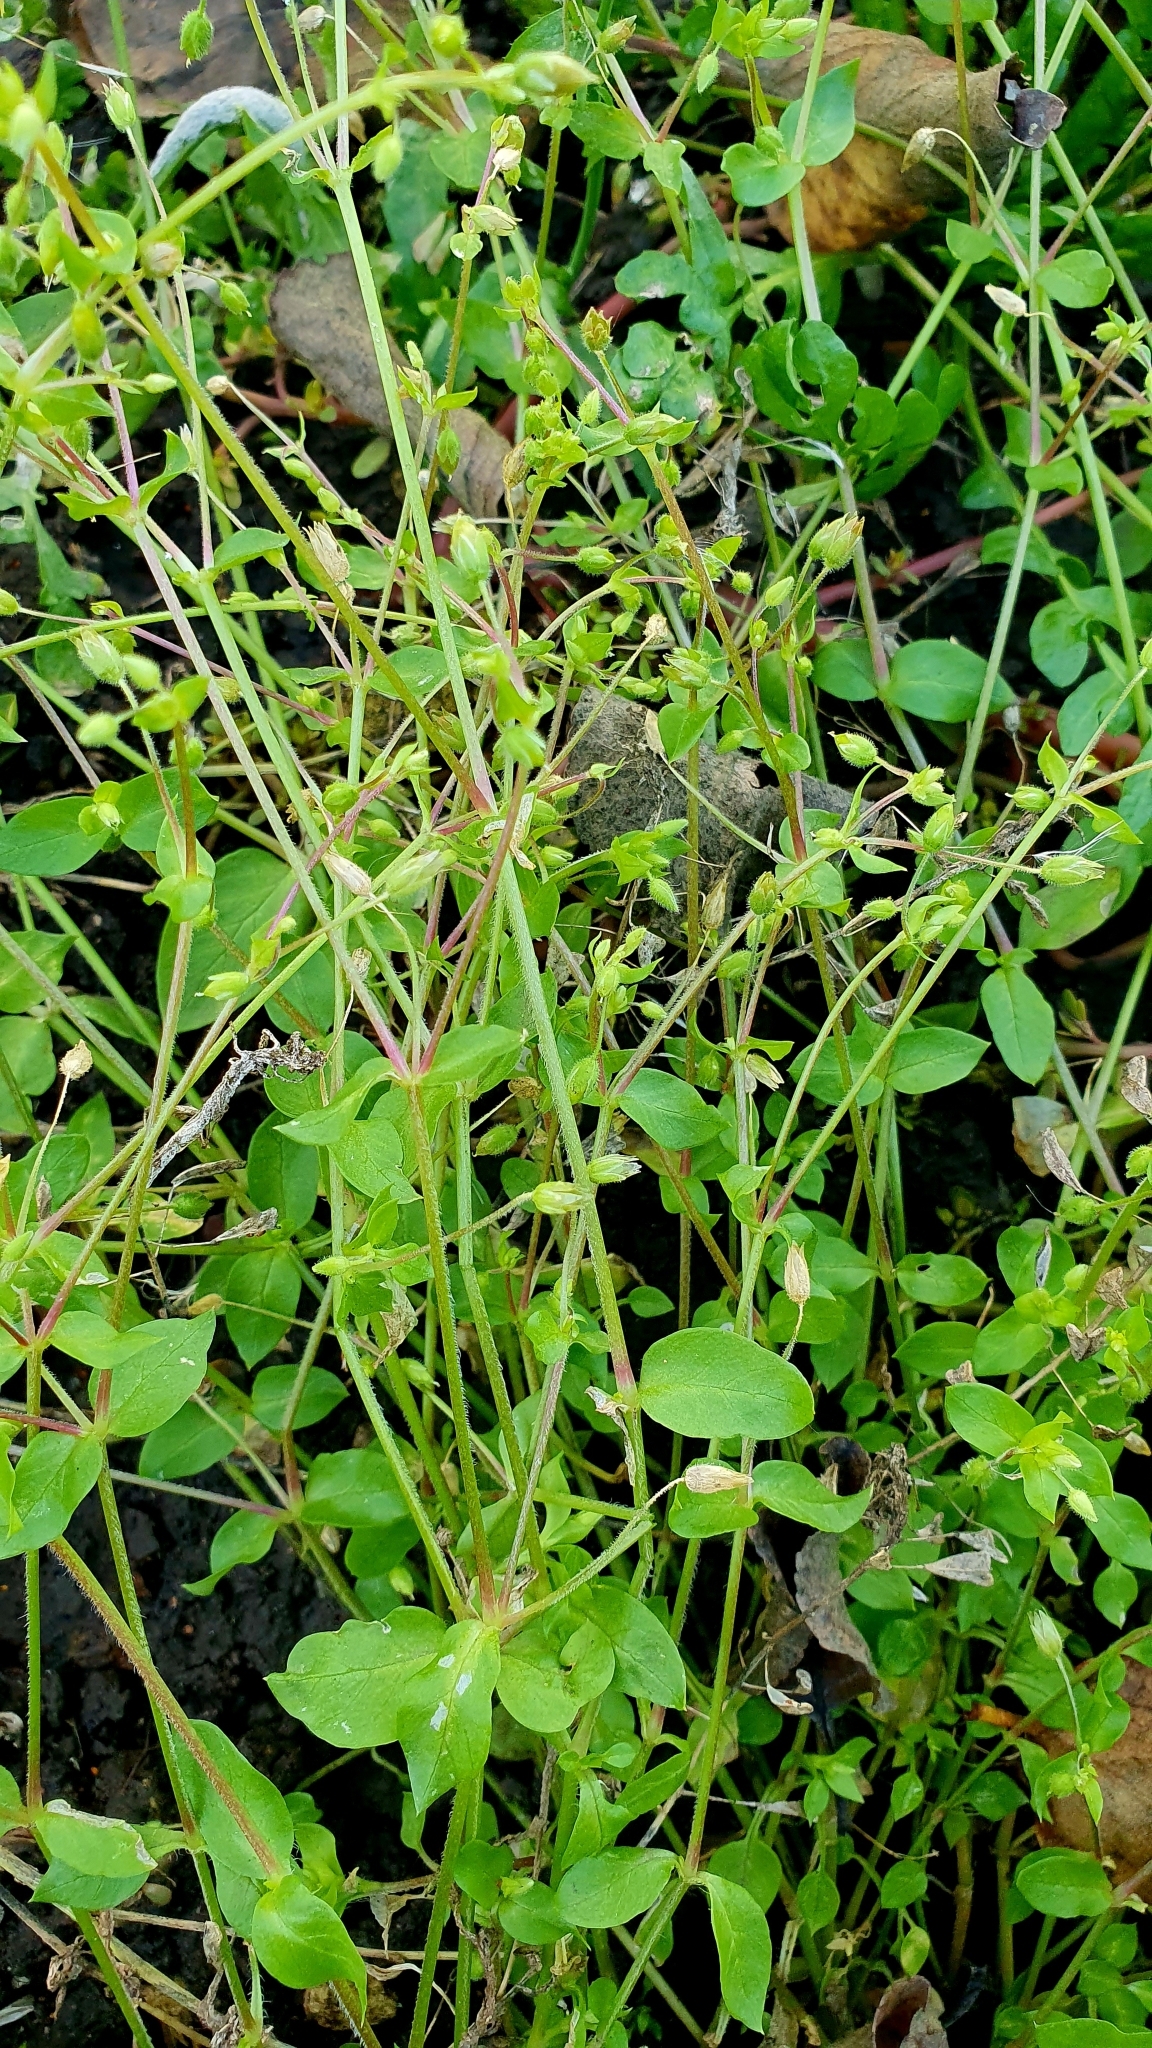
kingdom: Plantae
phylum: Tracheophyta
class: Magnoliopsida
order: Caryophyllales
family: Caryophyllaceae
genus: Stellaria
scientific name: Stellaria media
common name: Common chickweed
